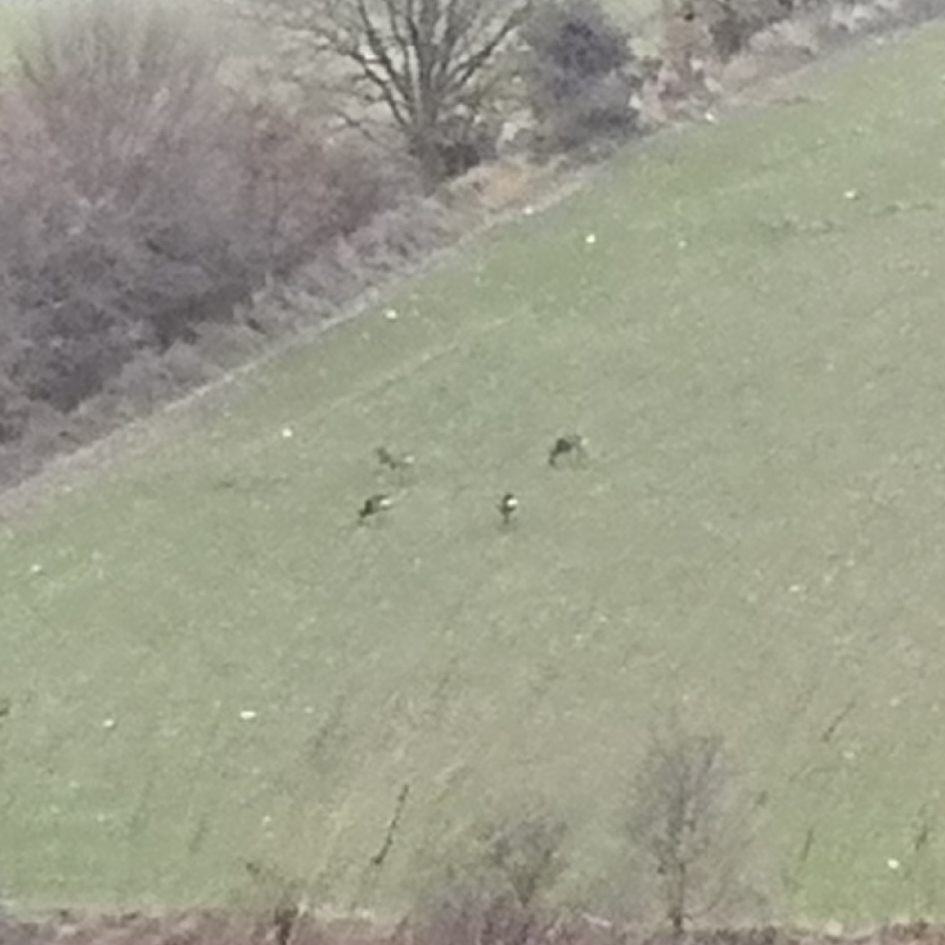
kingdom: Animalia
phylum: Chordata
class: Mammalia
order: Artiodactyla
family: Cervidae
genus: Capreolus
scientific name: Capreolus capreolus
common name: Western roe deer
